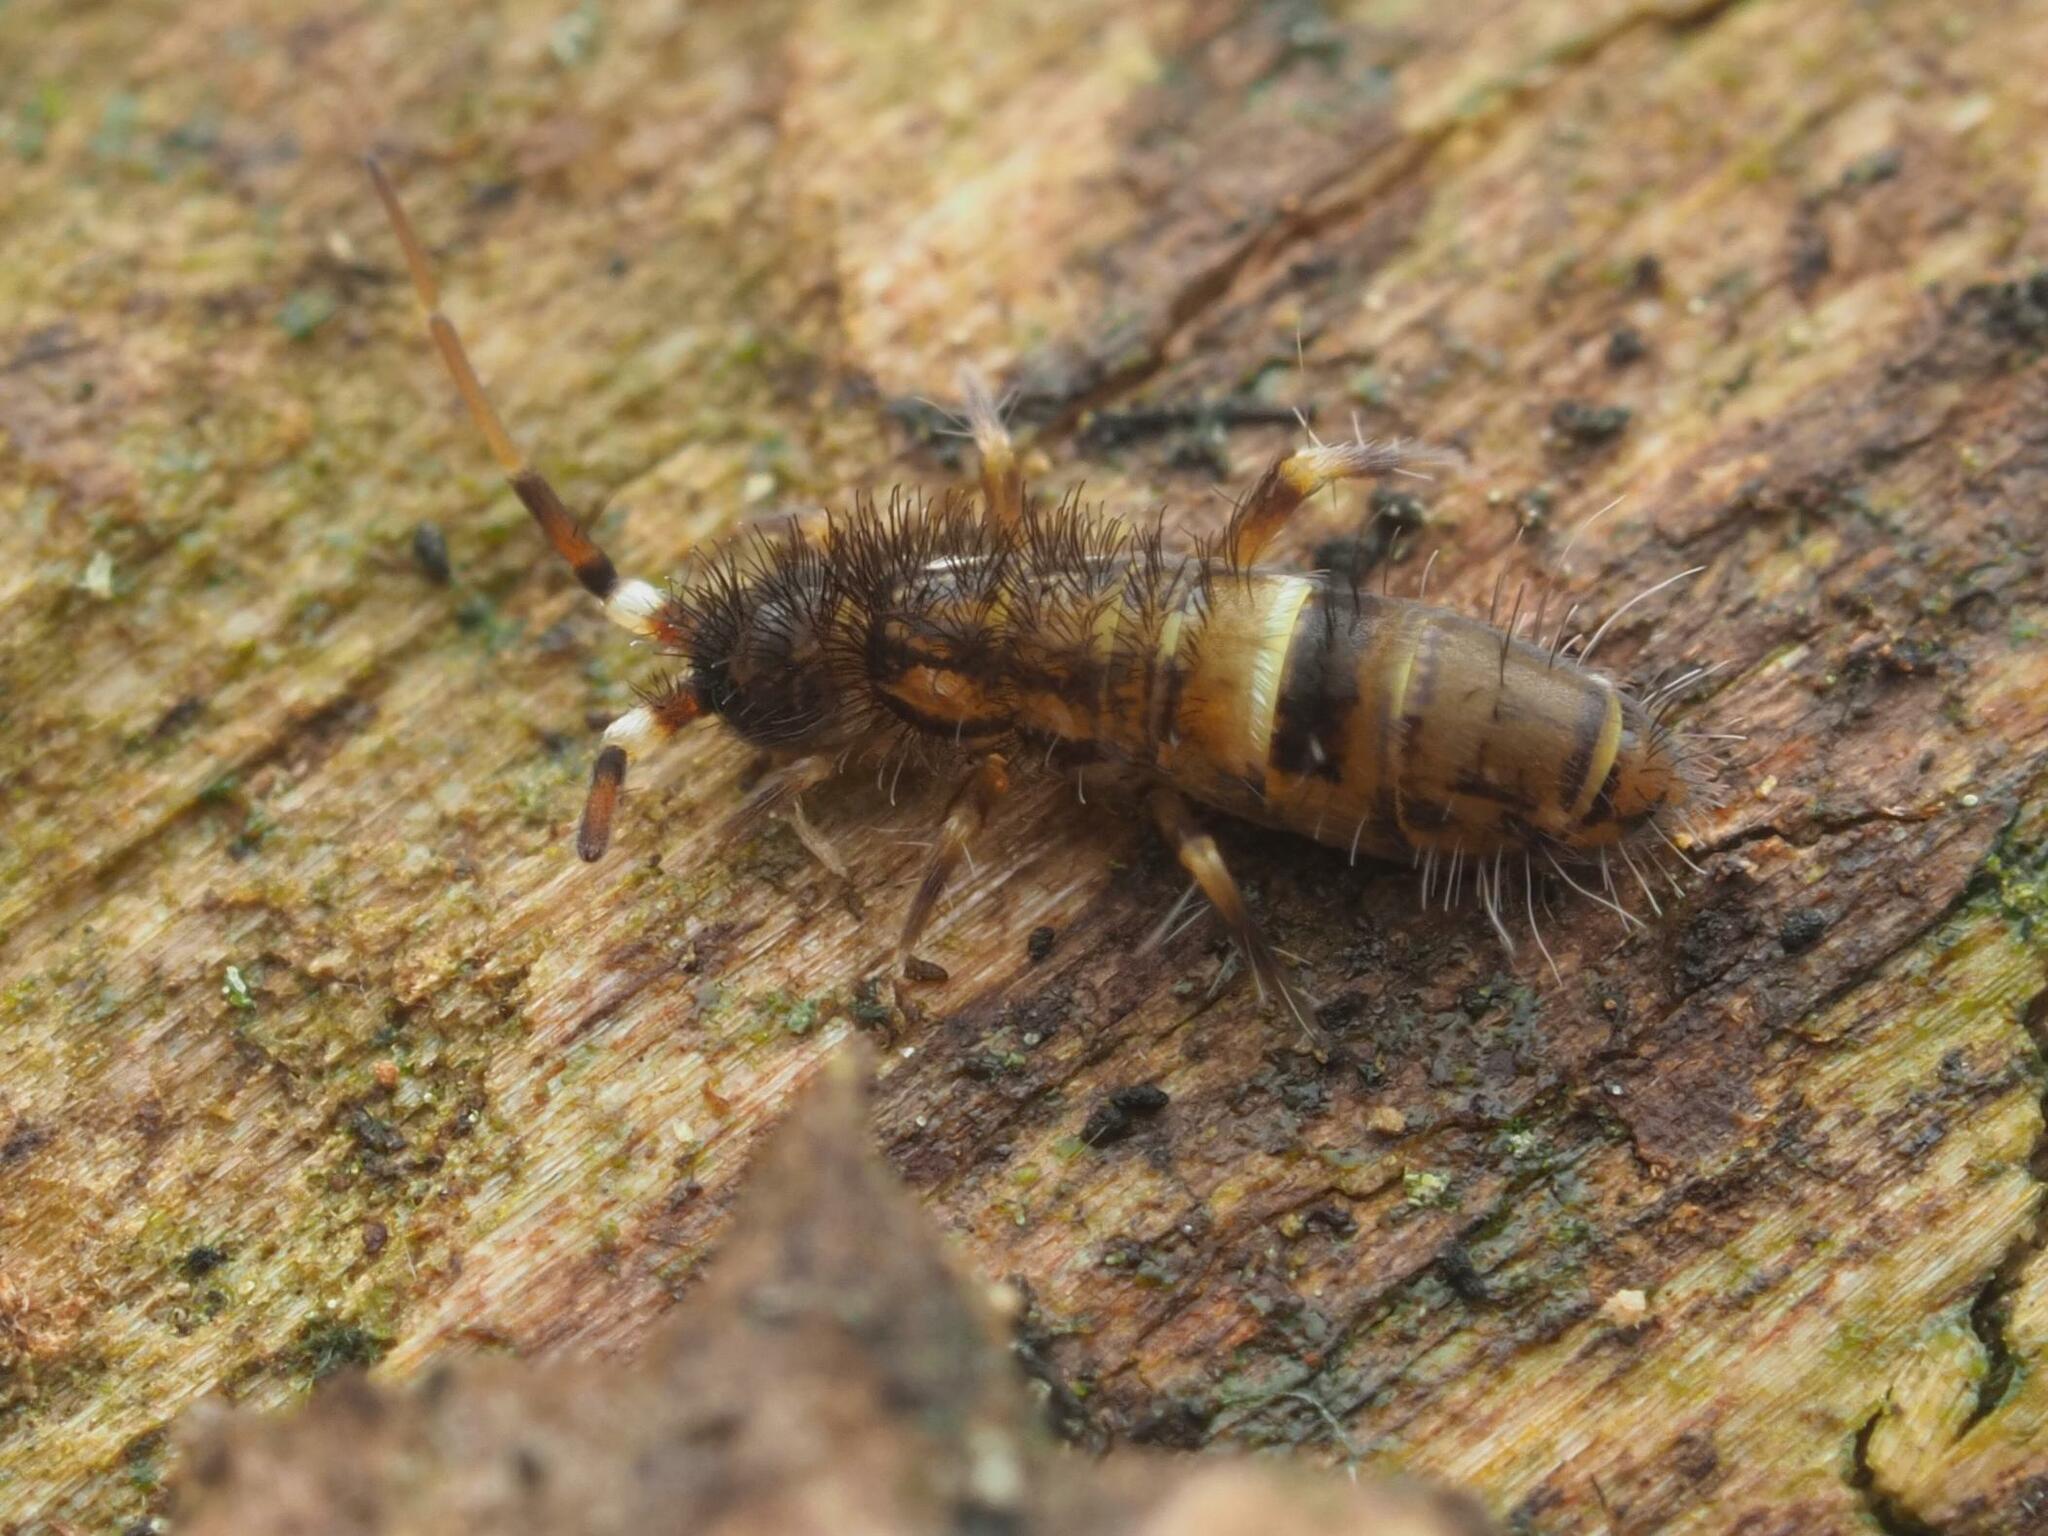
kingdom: Animalia
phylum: Arthropoda
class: Collembola
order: Entomobryomorpha
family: Orchesellidae
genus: Orchesella
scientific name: Orchesella cincta
